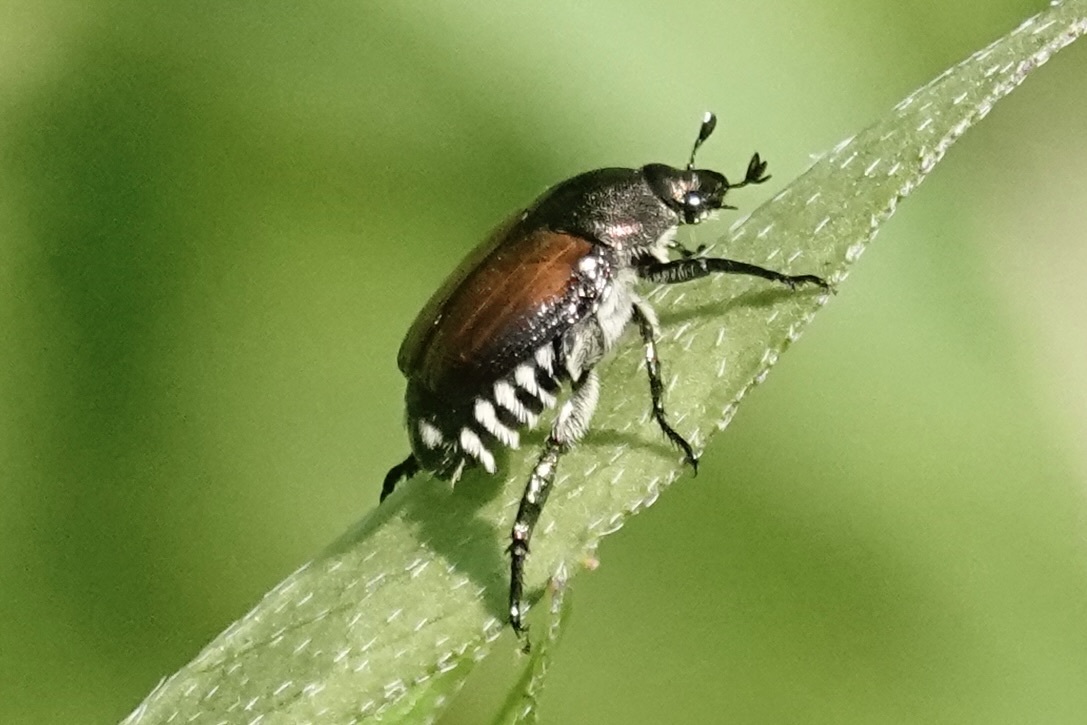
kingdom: Animalia
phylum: Arthropoda
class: Insecta
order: Coleoptera
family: Scarabaeidae
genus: Popillia
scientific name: Popillia japonica
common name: Japanese beetle
